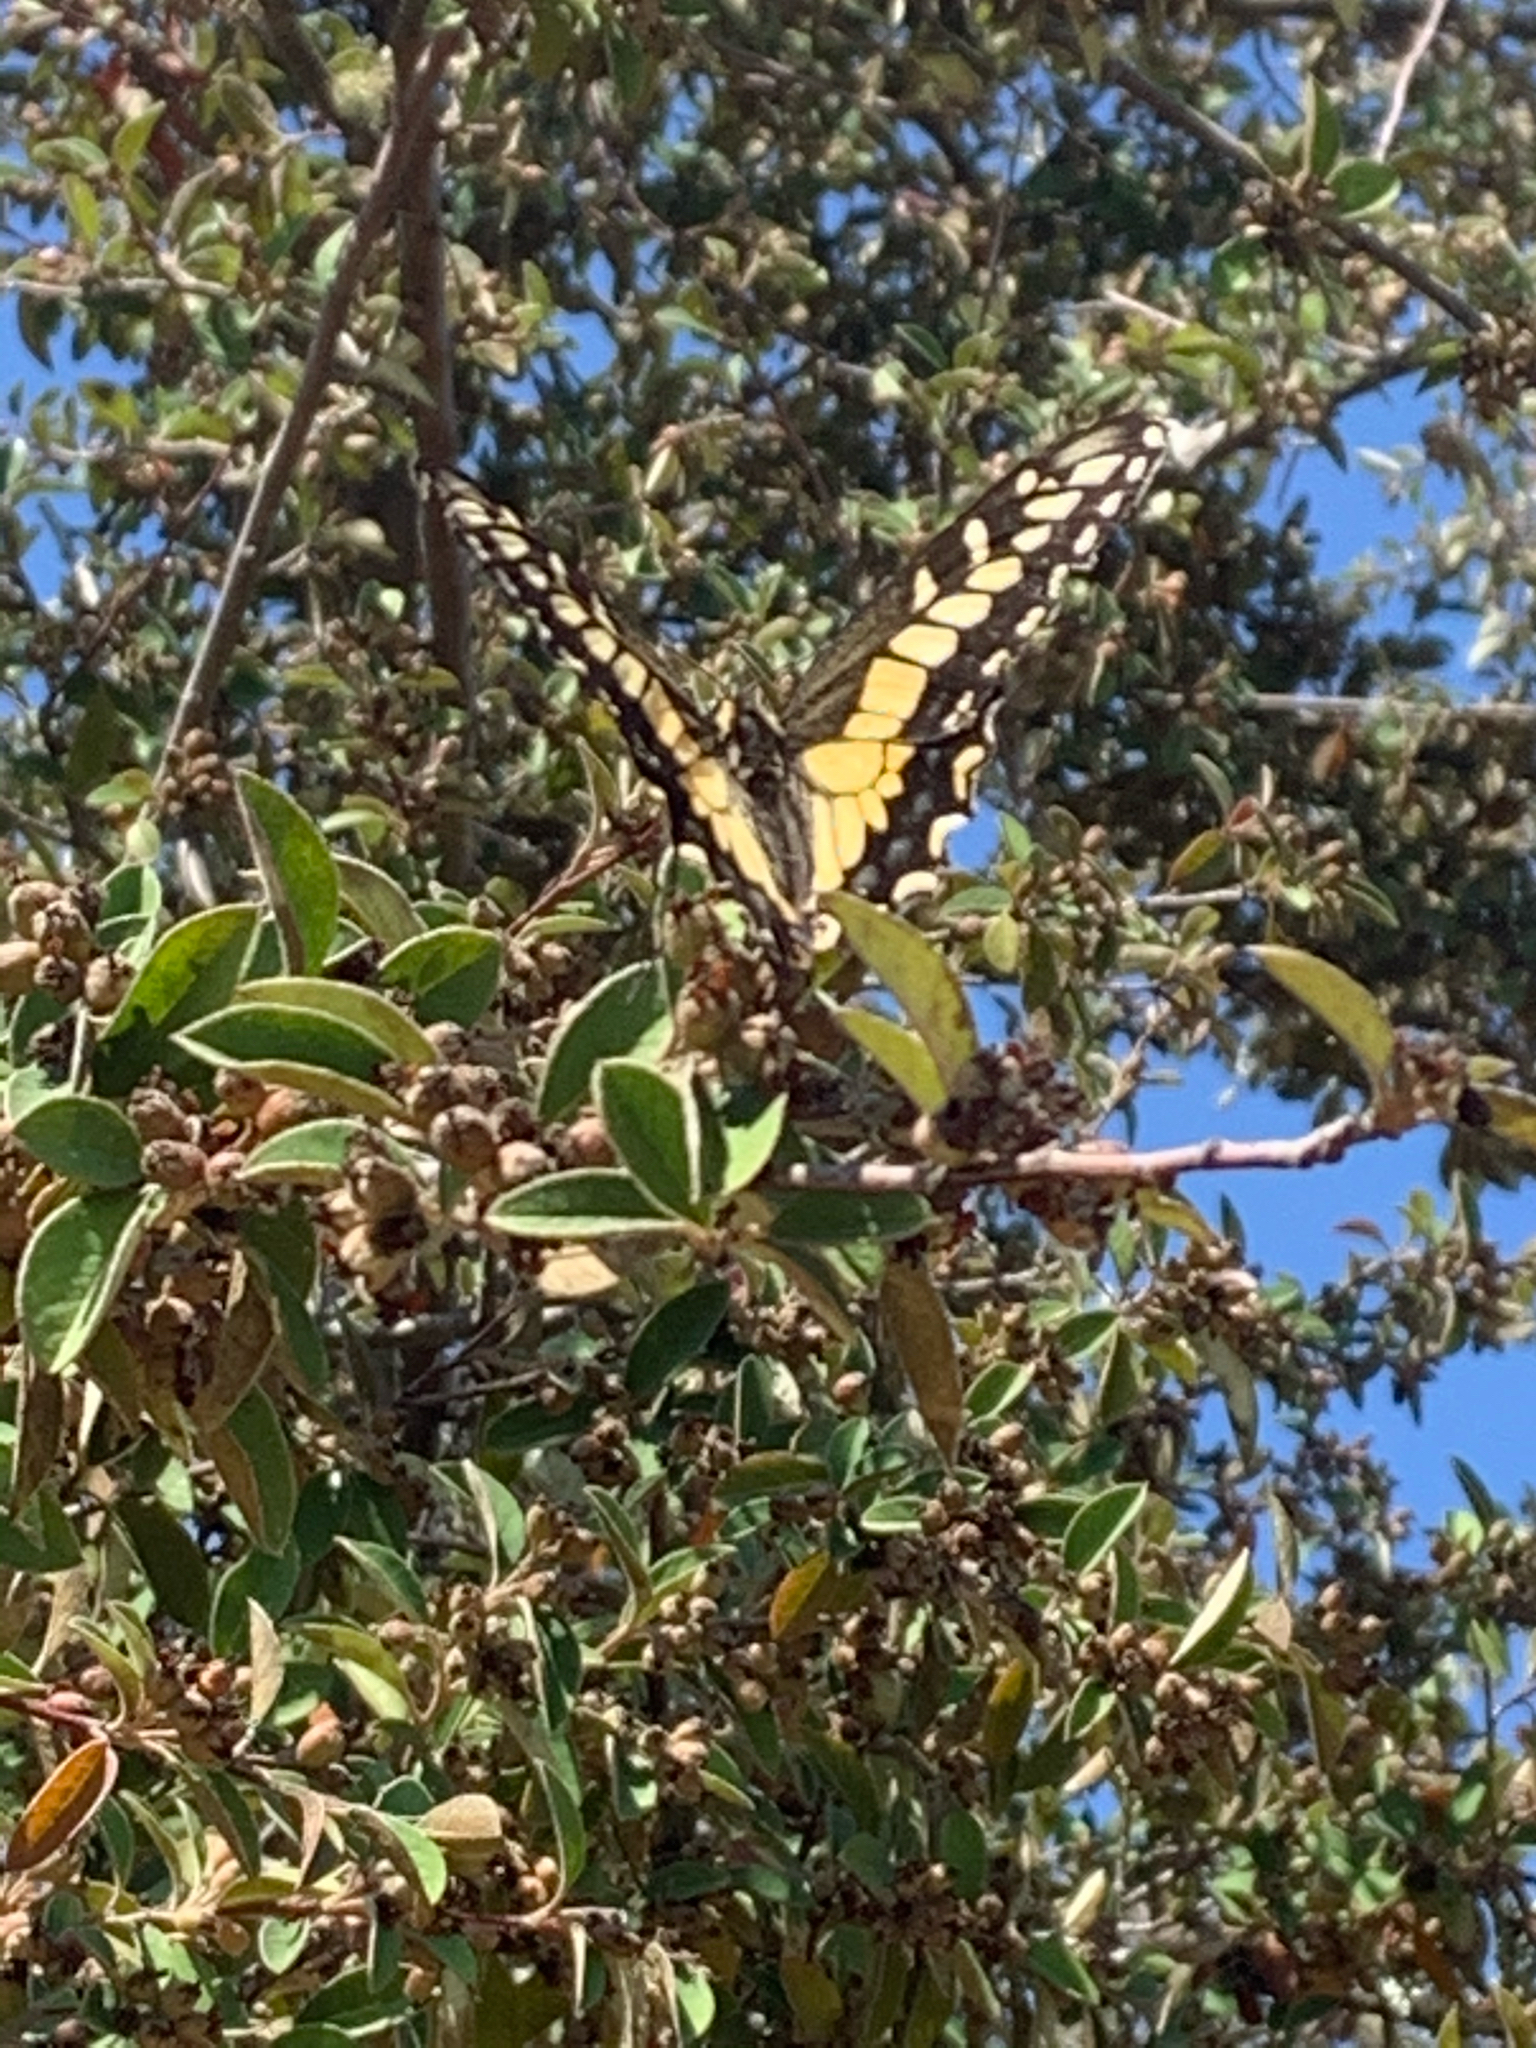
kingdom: Animalia
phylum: Arthropoda
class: Insecta
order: Lepidoptera
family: Papilionidae
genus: Papilio
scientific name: Papilio zelicaon
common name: Anise swallowtail
